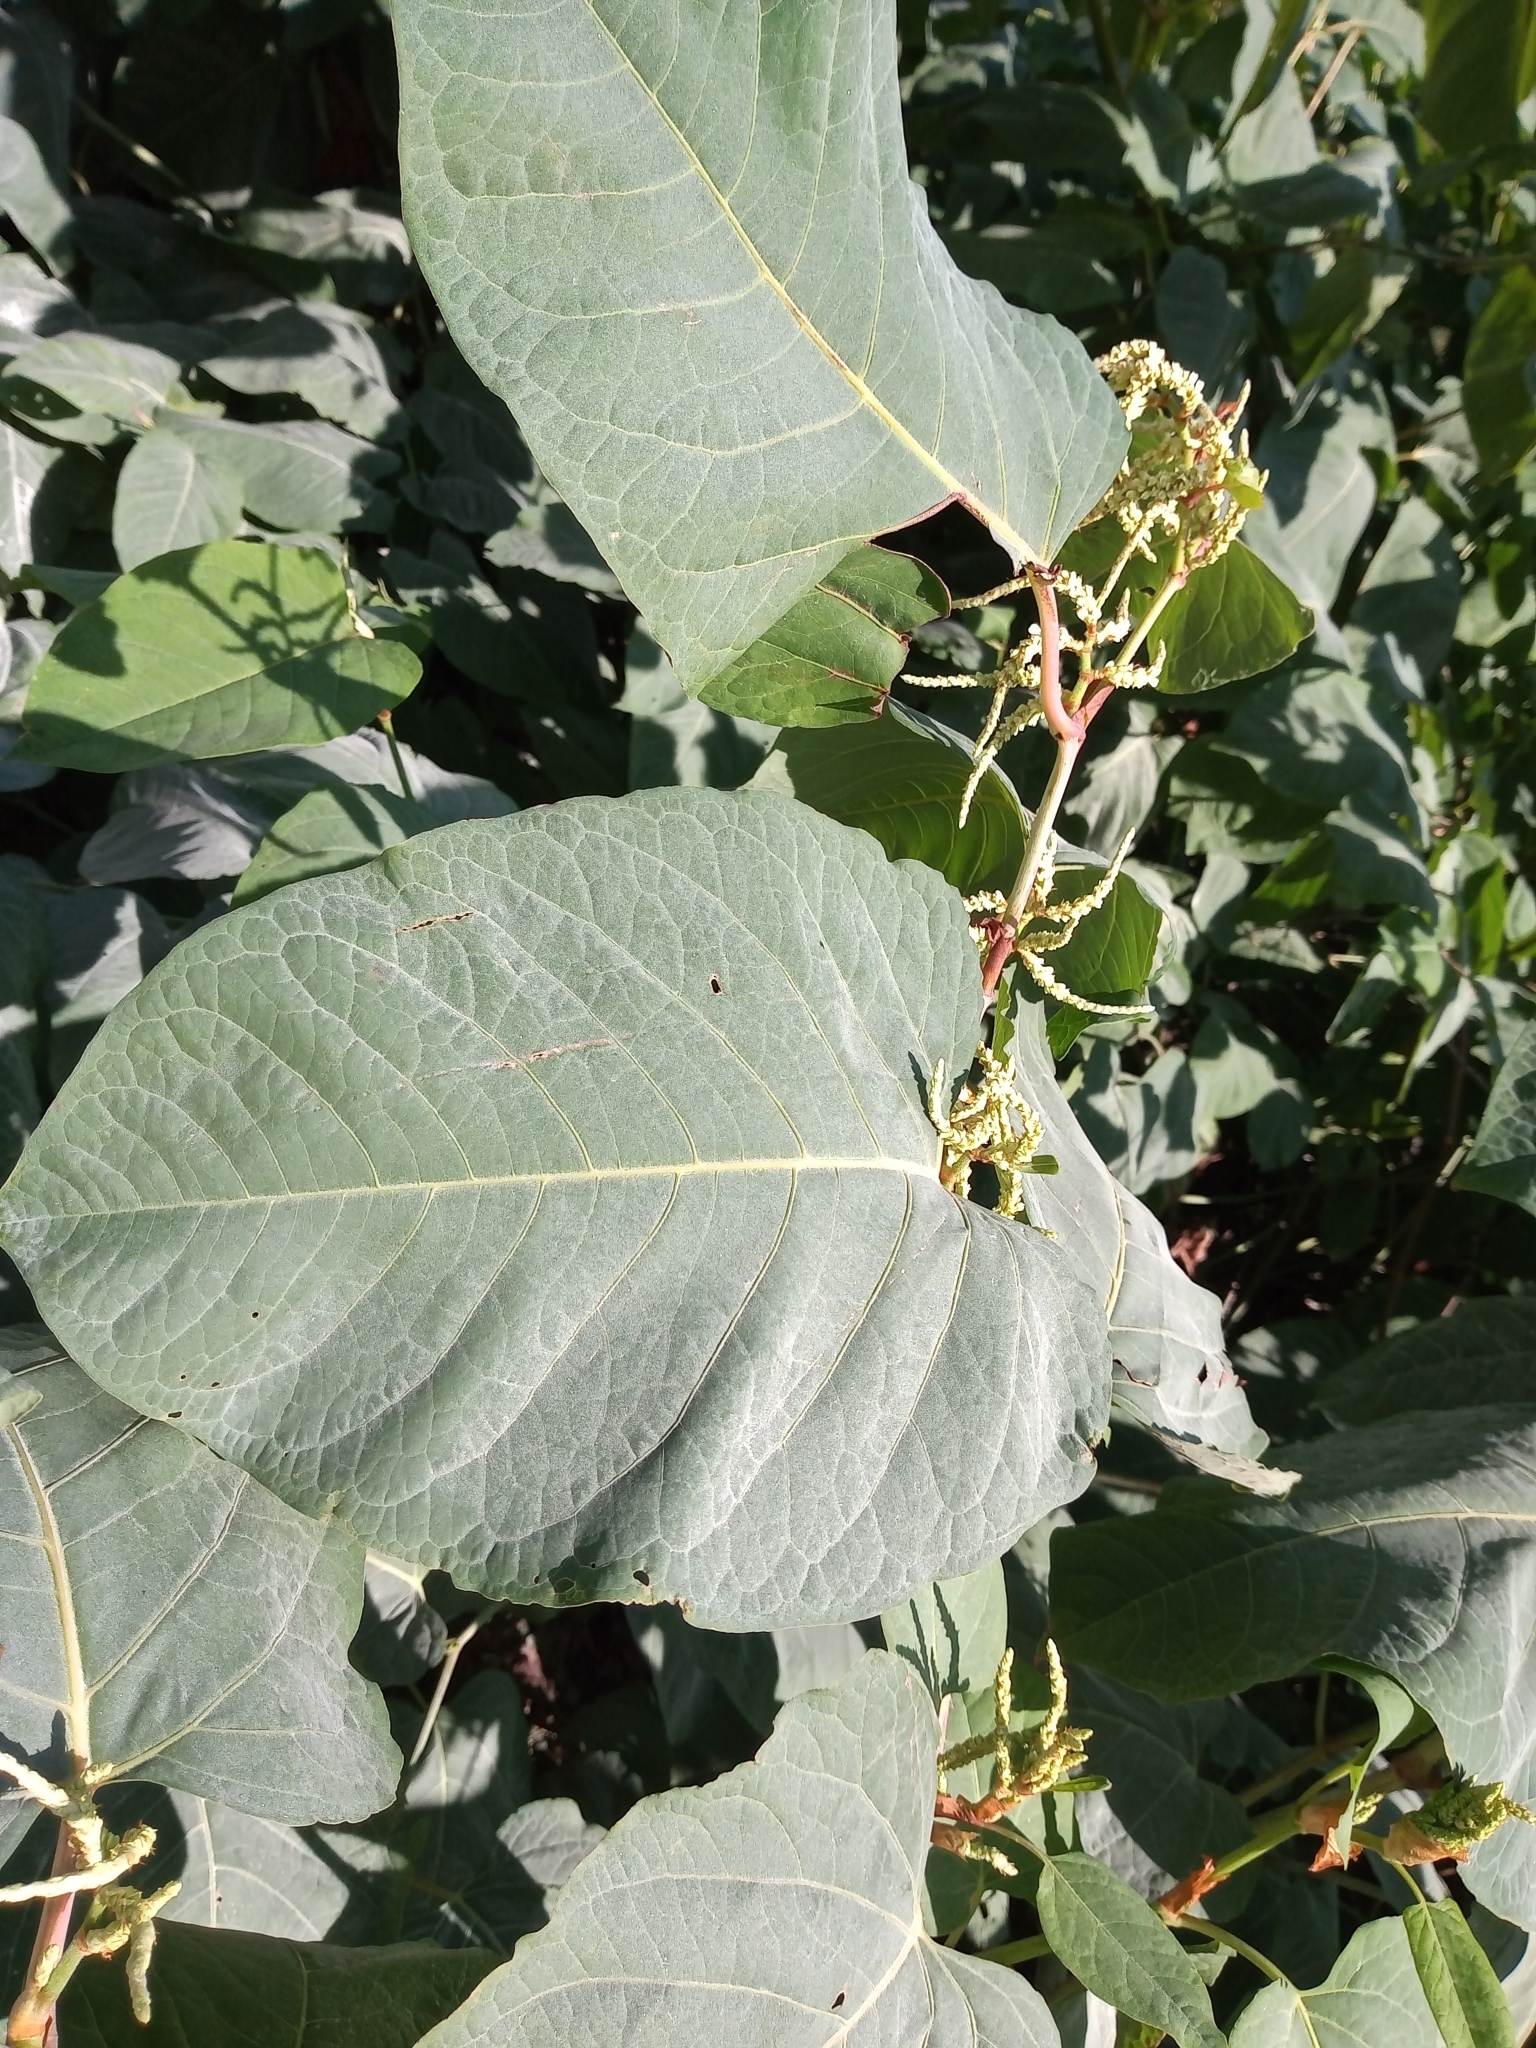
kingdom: Plantae
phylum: Tracheophyta
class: Magnoliopsida
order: Caryophyllales
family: Polygonaceae
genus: Reynoutria
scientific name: Reynoutria sachalinensis
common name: Giant knotweed
